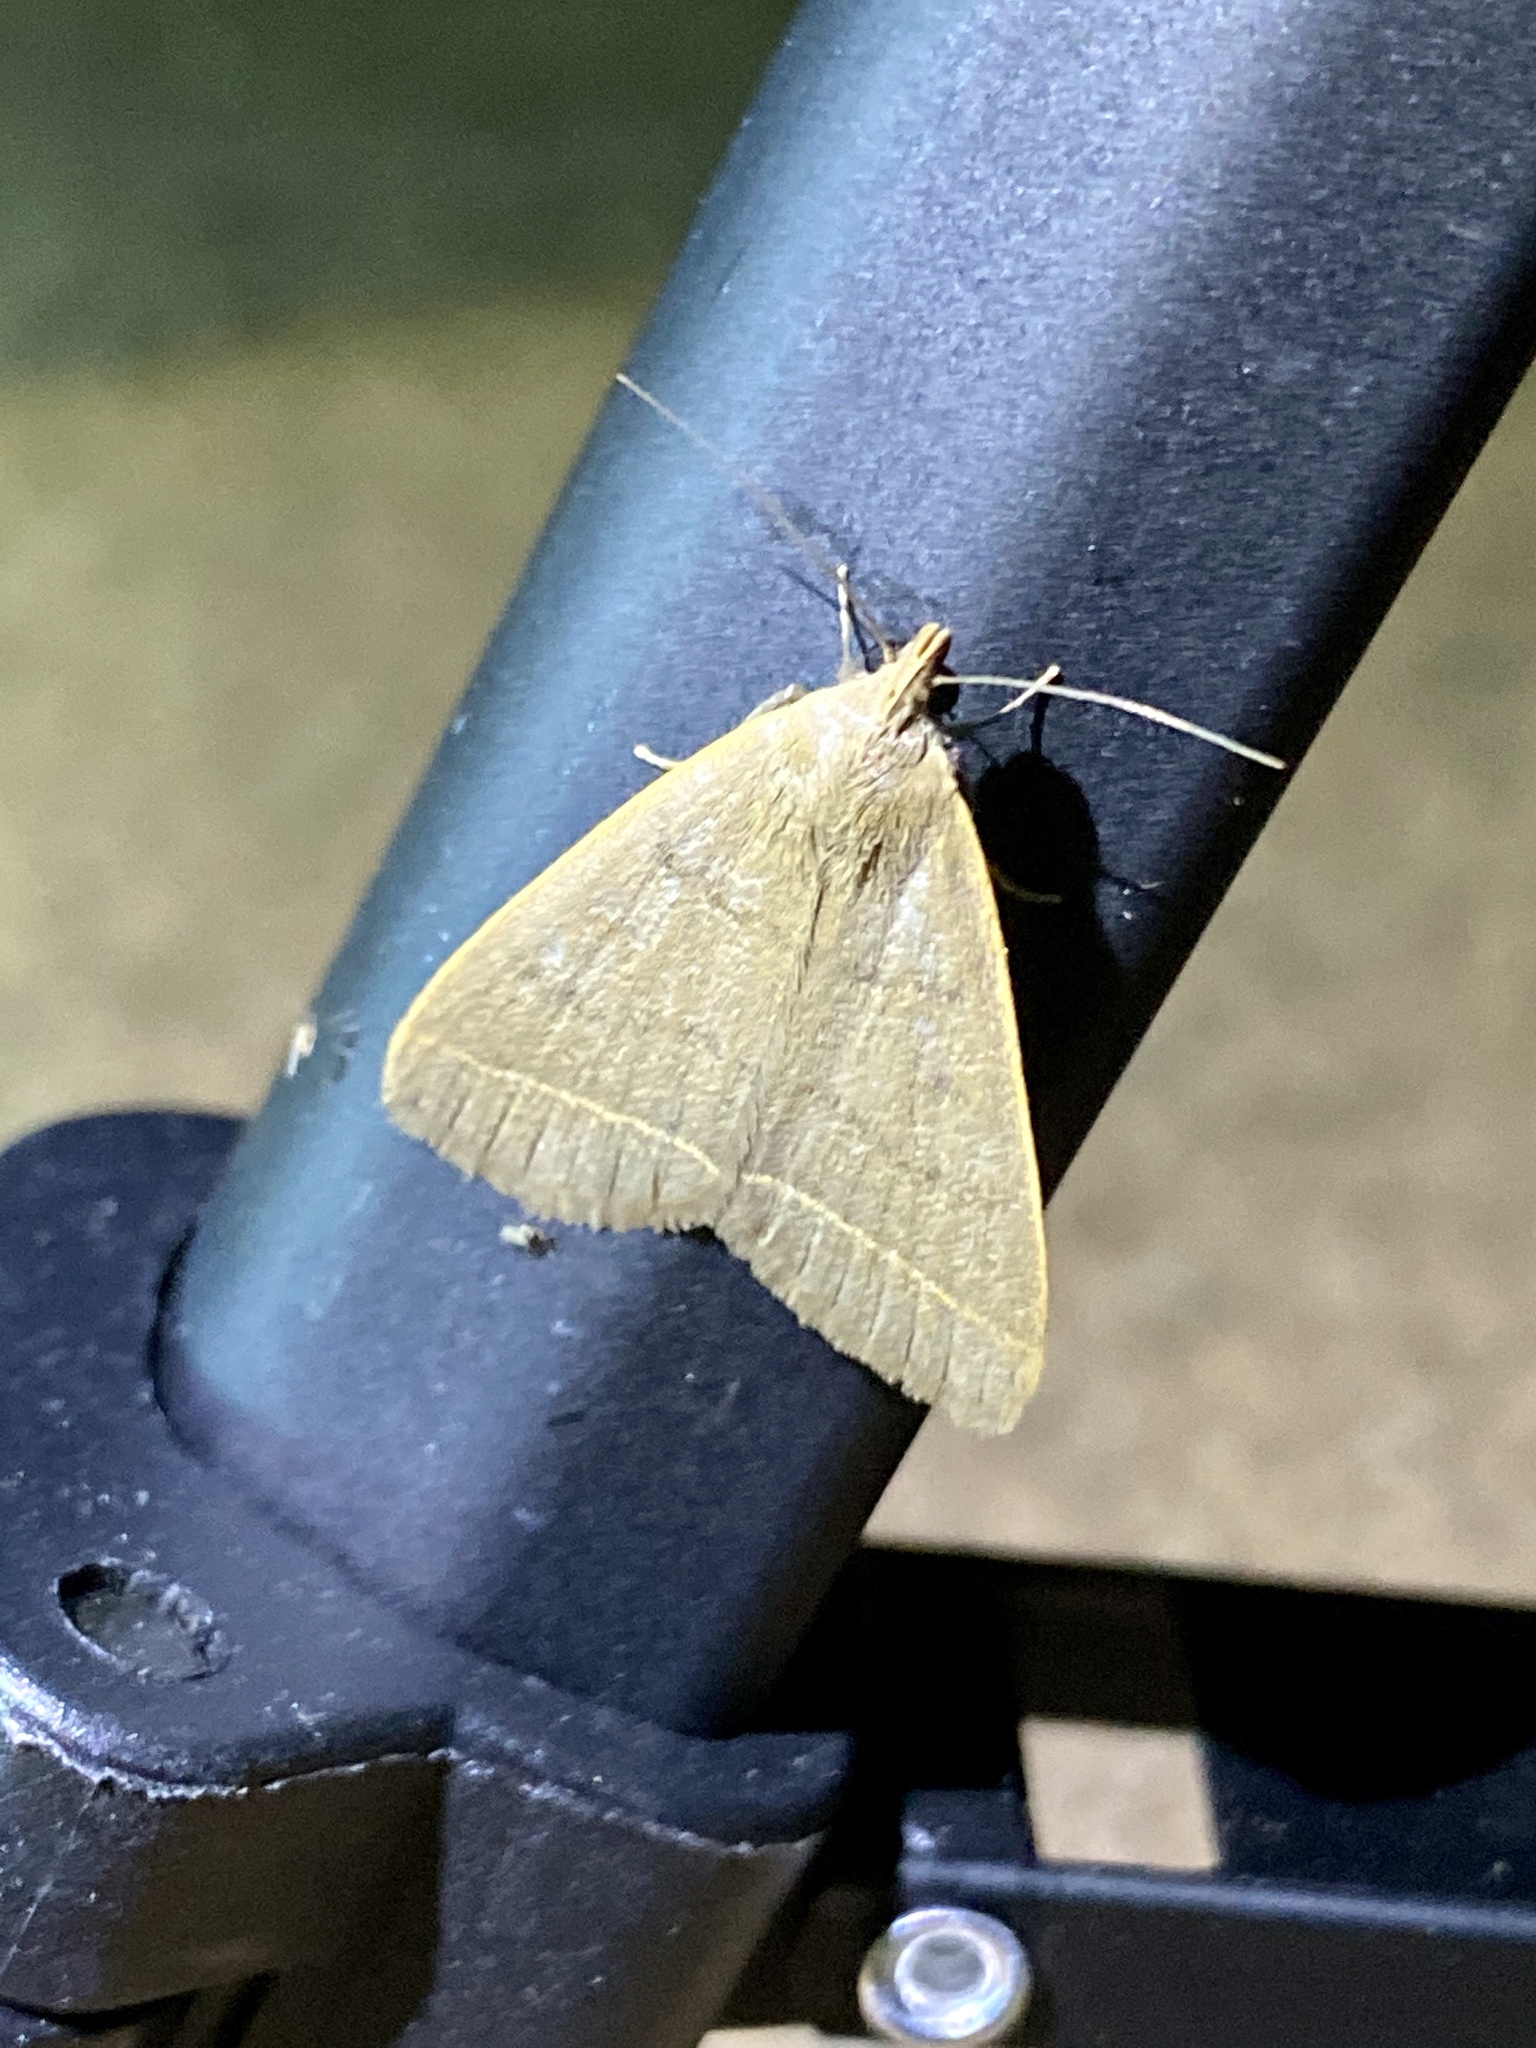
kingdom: Animalia
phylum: Arthropoda
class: Insecta
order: Lepidoptera
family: Erebidae
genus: Simplicia
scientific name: Simplicia niphona
